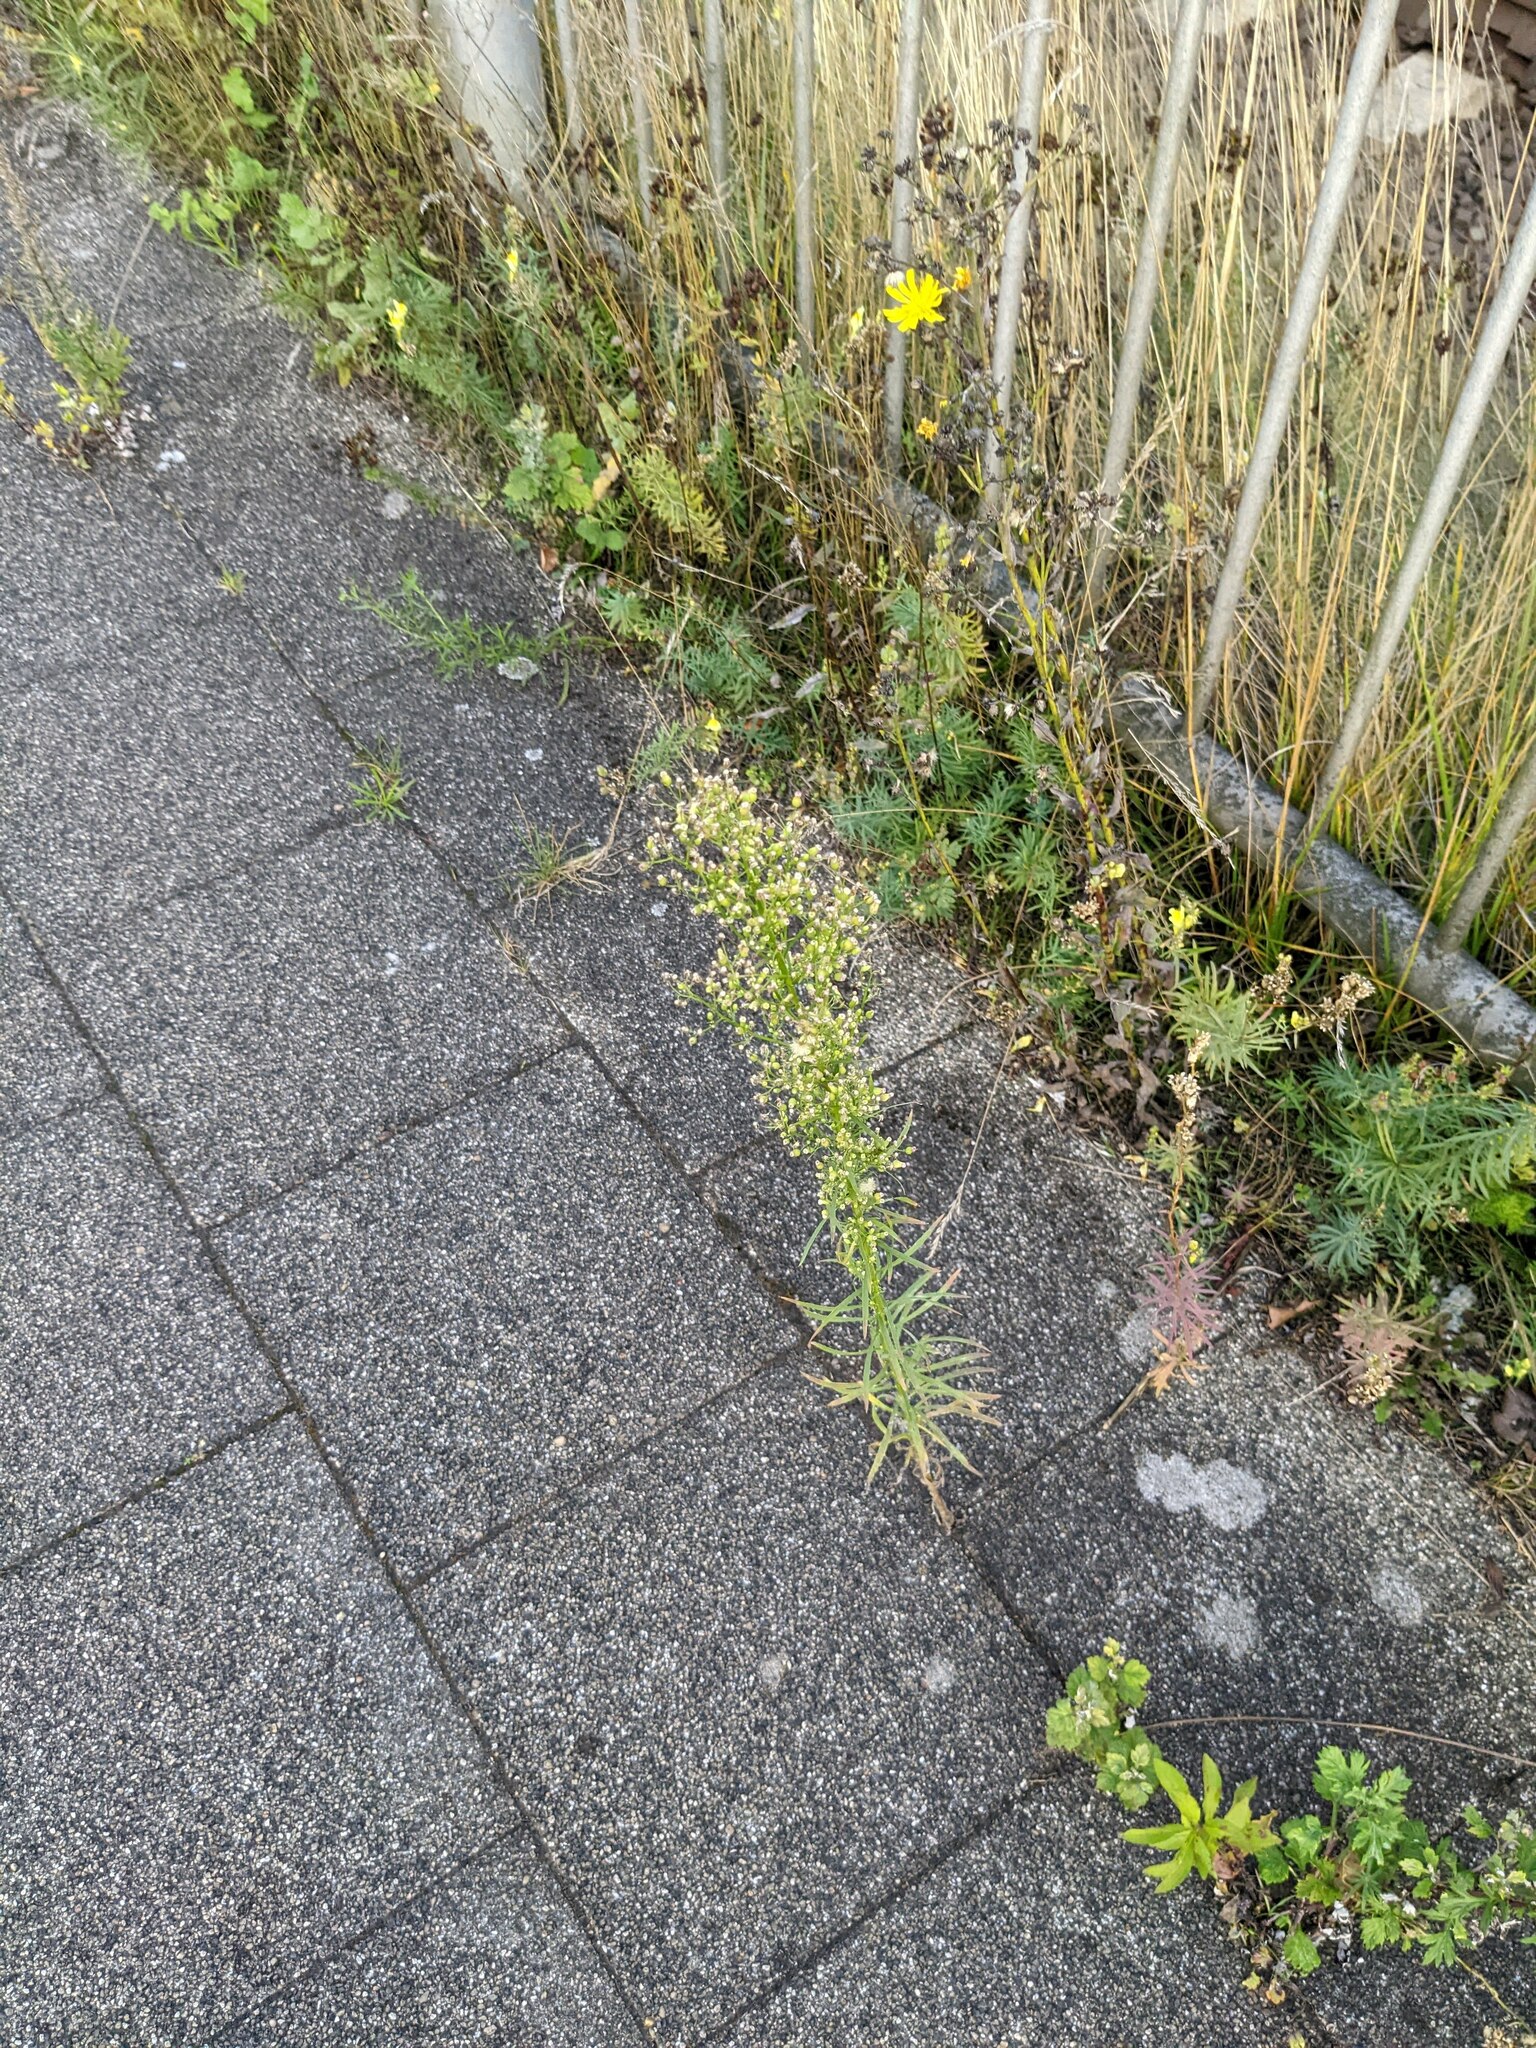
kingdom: Plantae
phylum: Tracheophyta
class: Magnoliopsida
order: Asterales
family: Asteraceae
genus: Erigeron
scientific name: Erigeron canadensis
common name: Canadian fleabane
